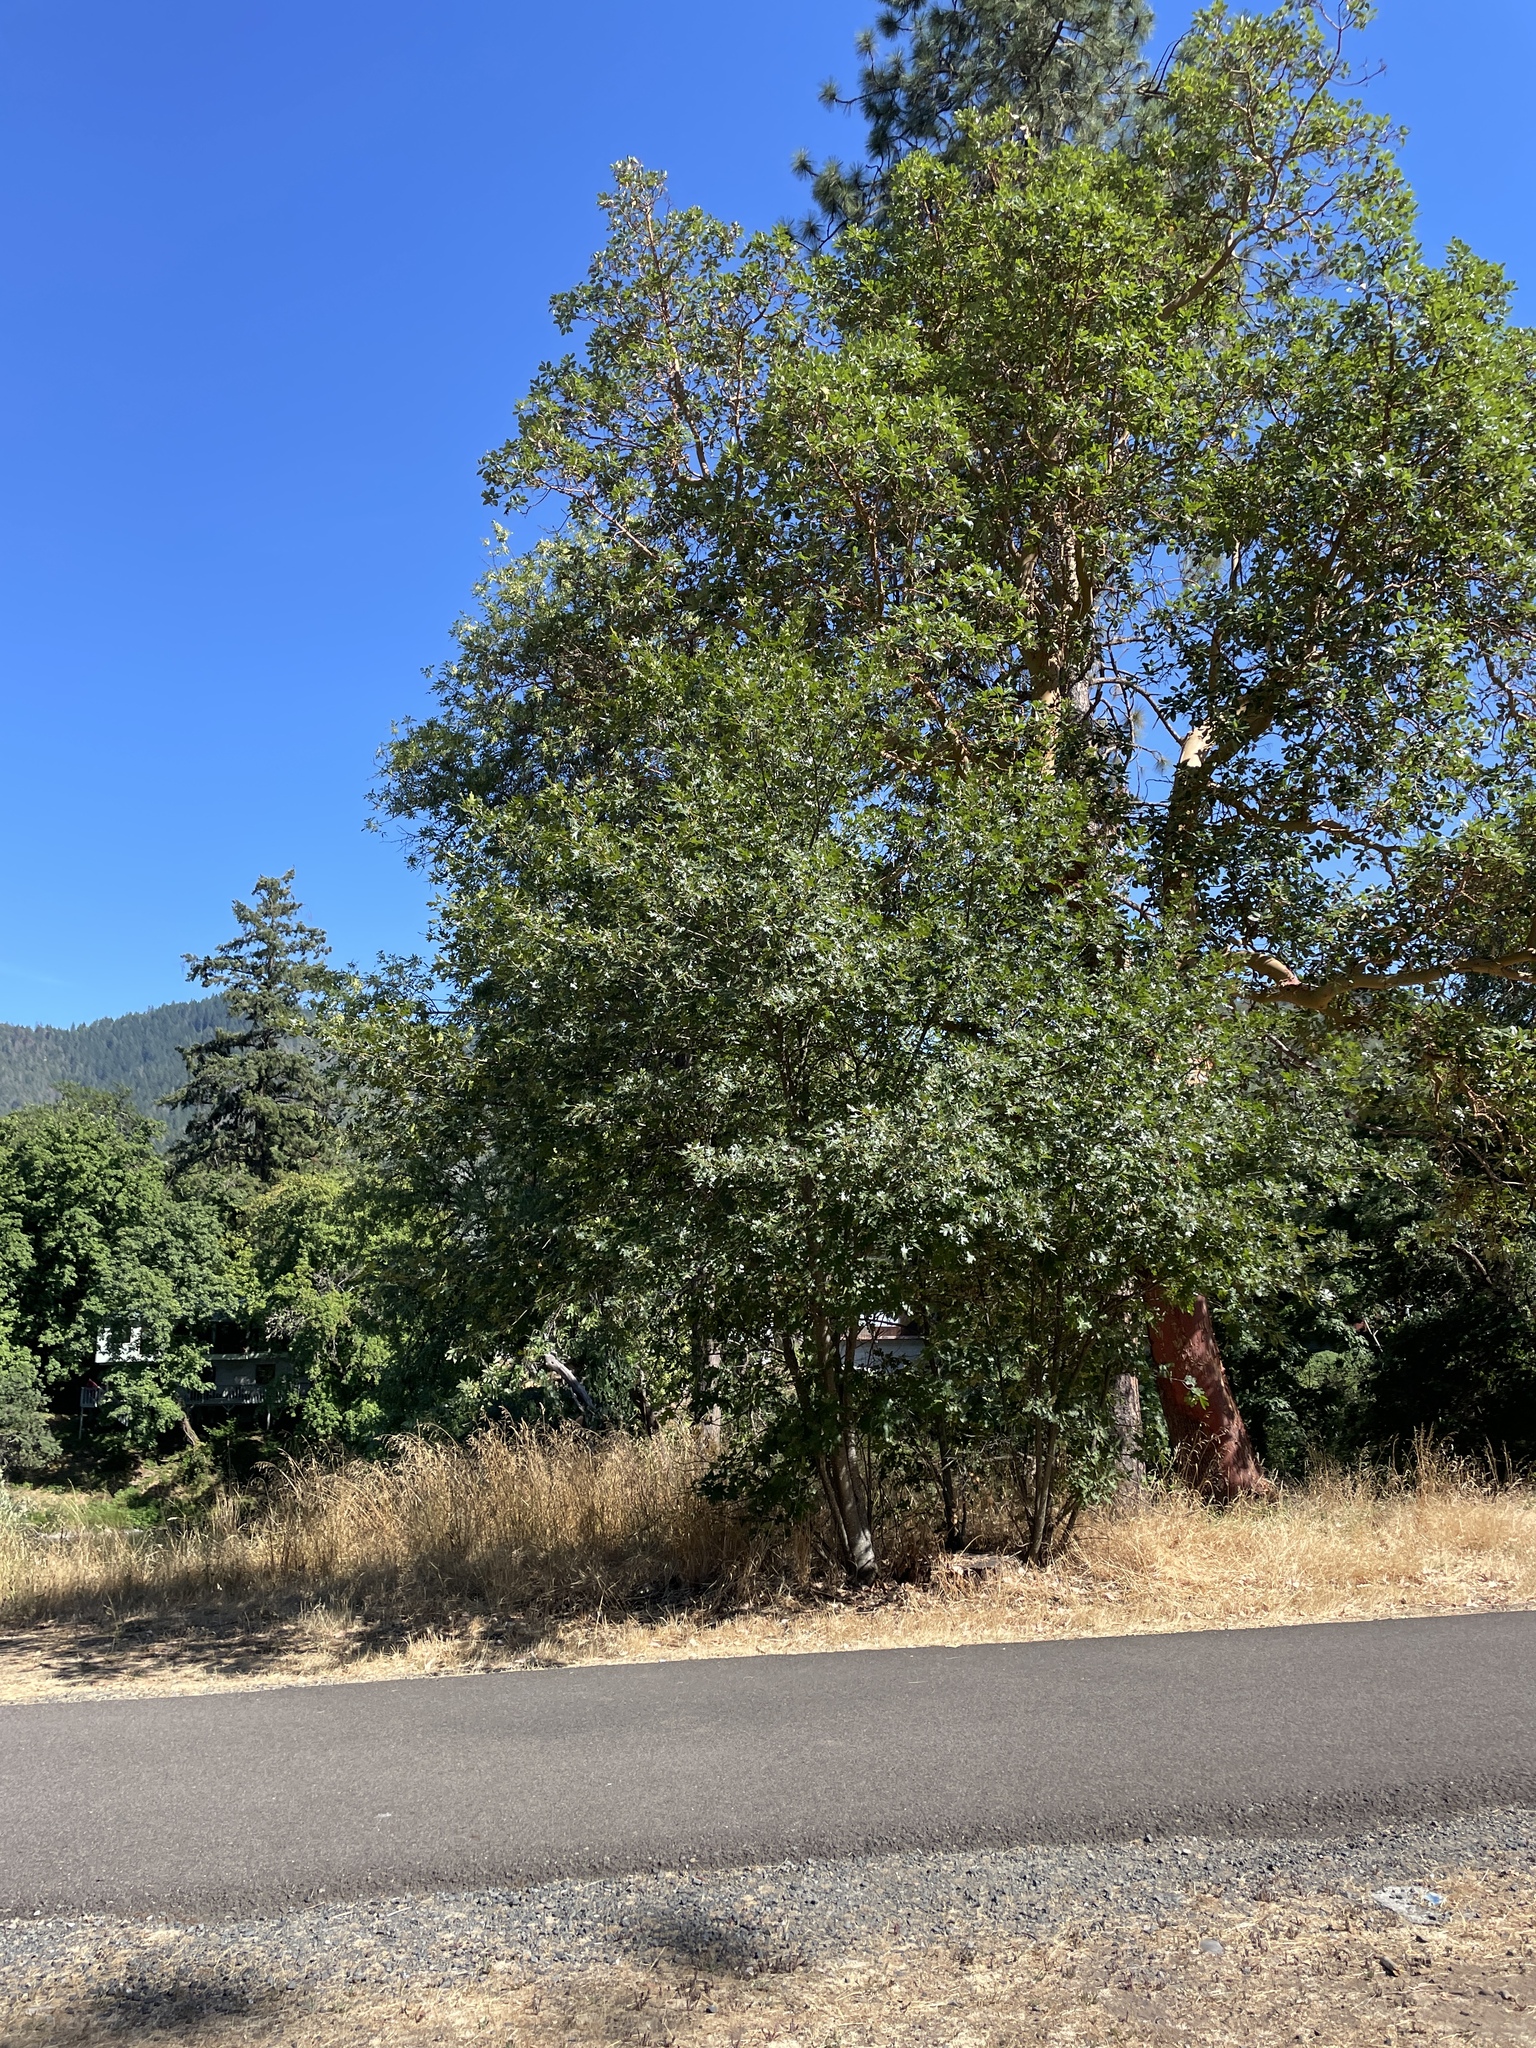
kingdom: Plantae
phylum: Tracheophyta
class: Magnoliopsida
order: Fagales
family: Fagaceae
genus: Quercus
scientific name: Quercus kelloggii
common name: California black oak
